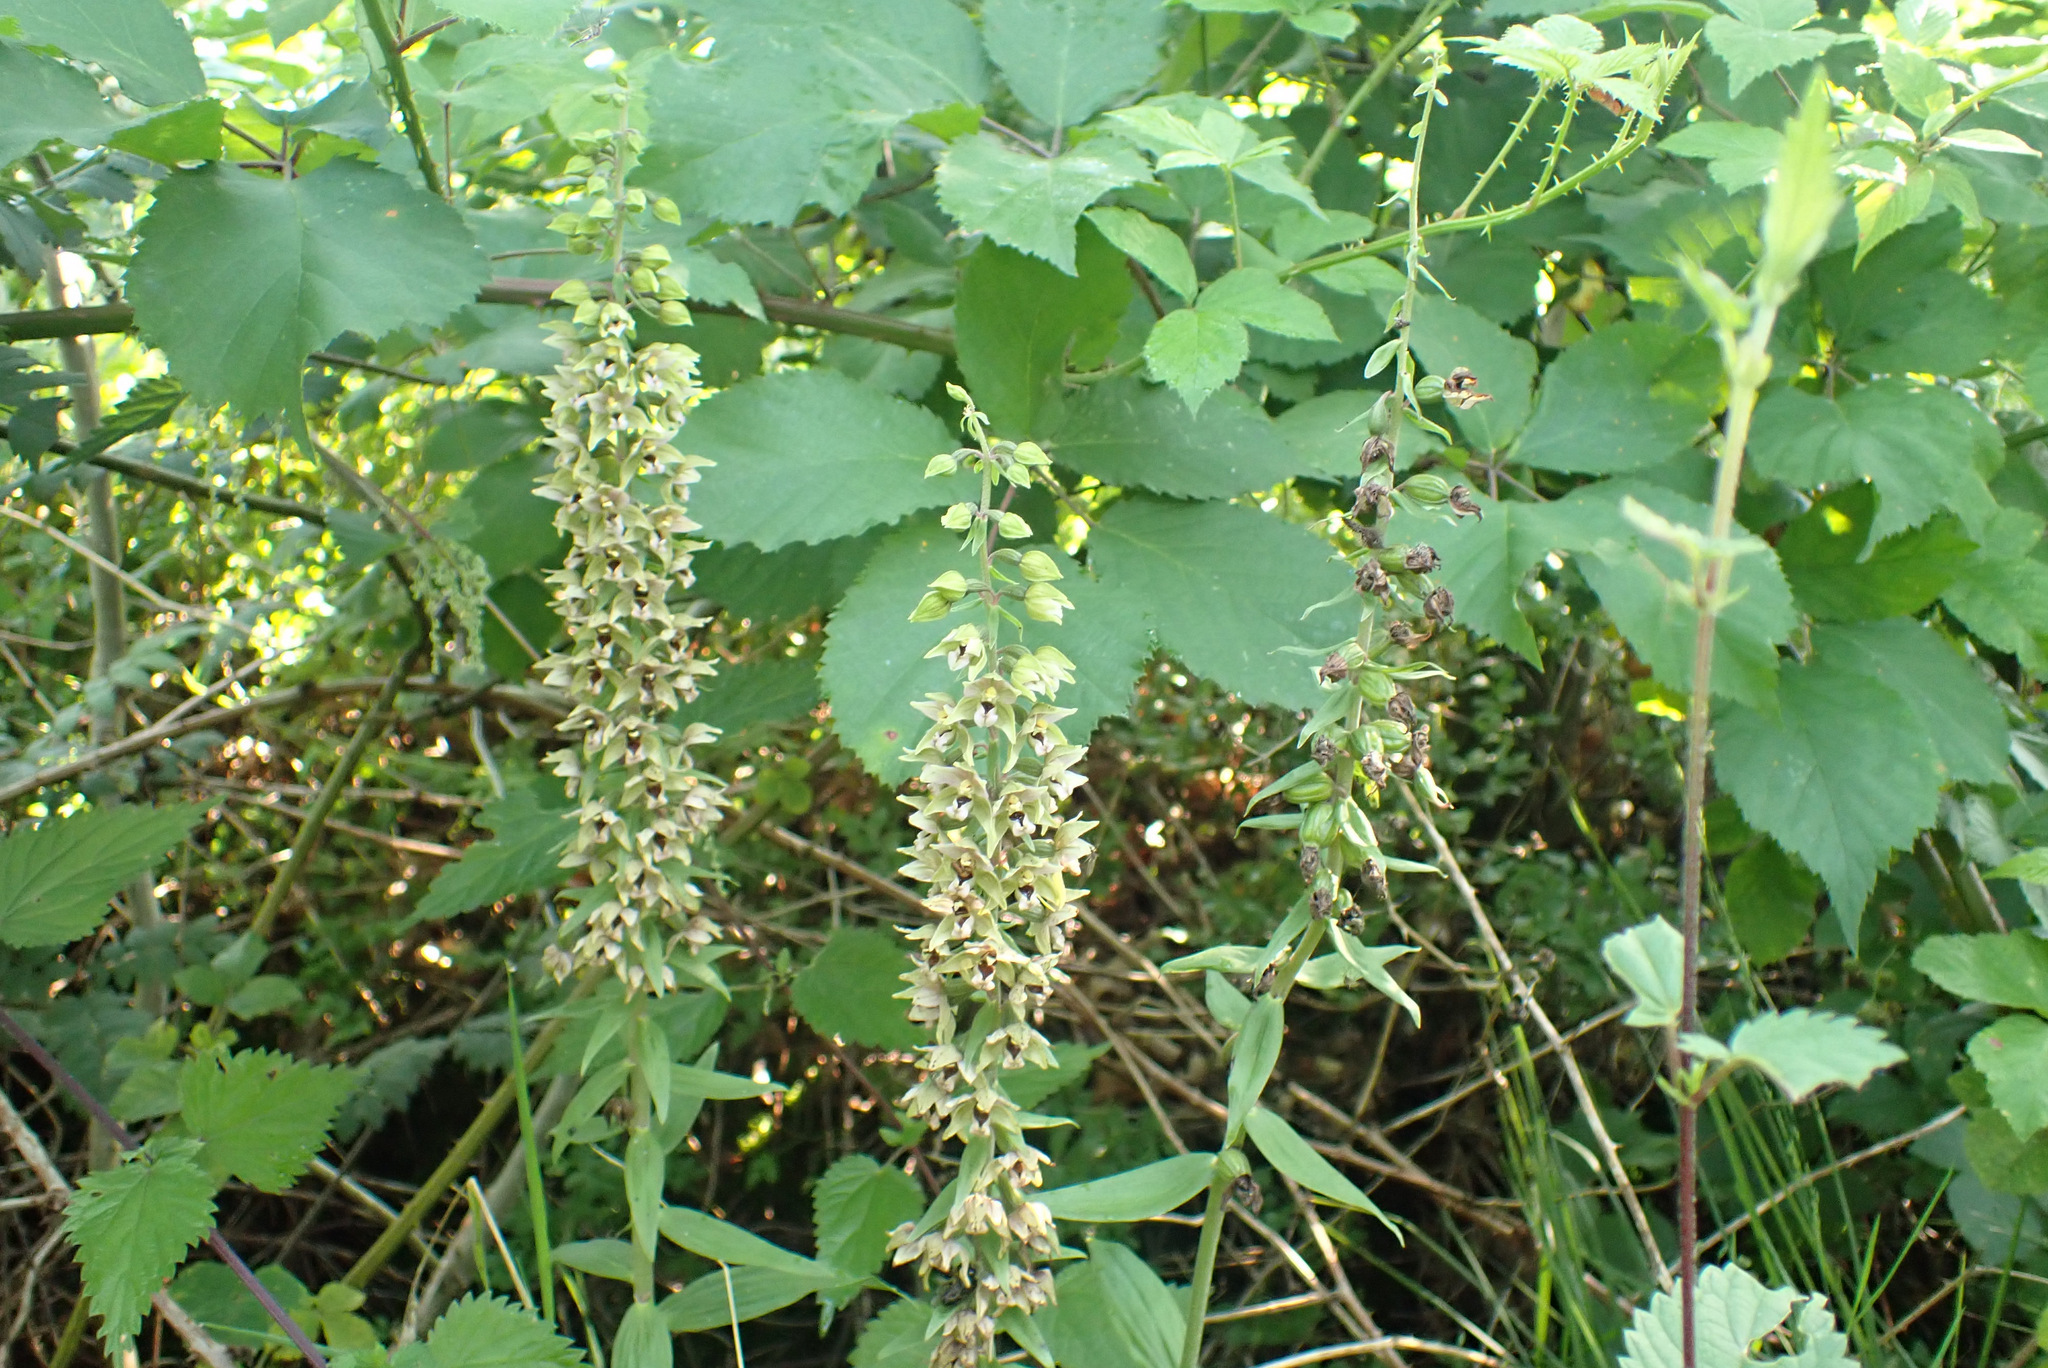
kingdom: Plantae
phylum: Tracheophyta
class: Liliopsida
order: Asparagales
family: Orchidaceae
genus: Epipactis
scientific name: Epipactis helleborine
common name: Broad-leaved helleborine
